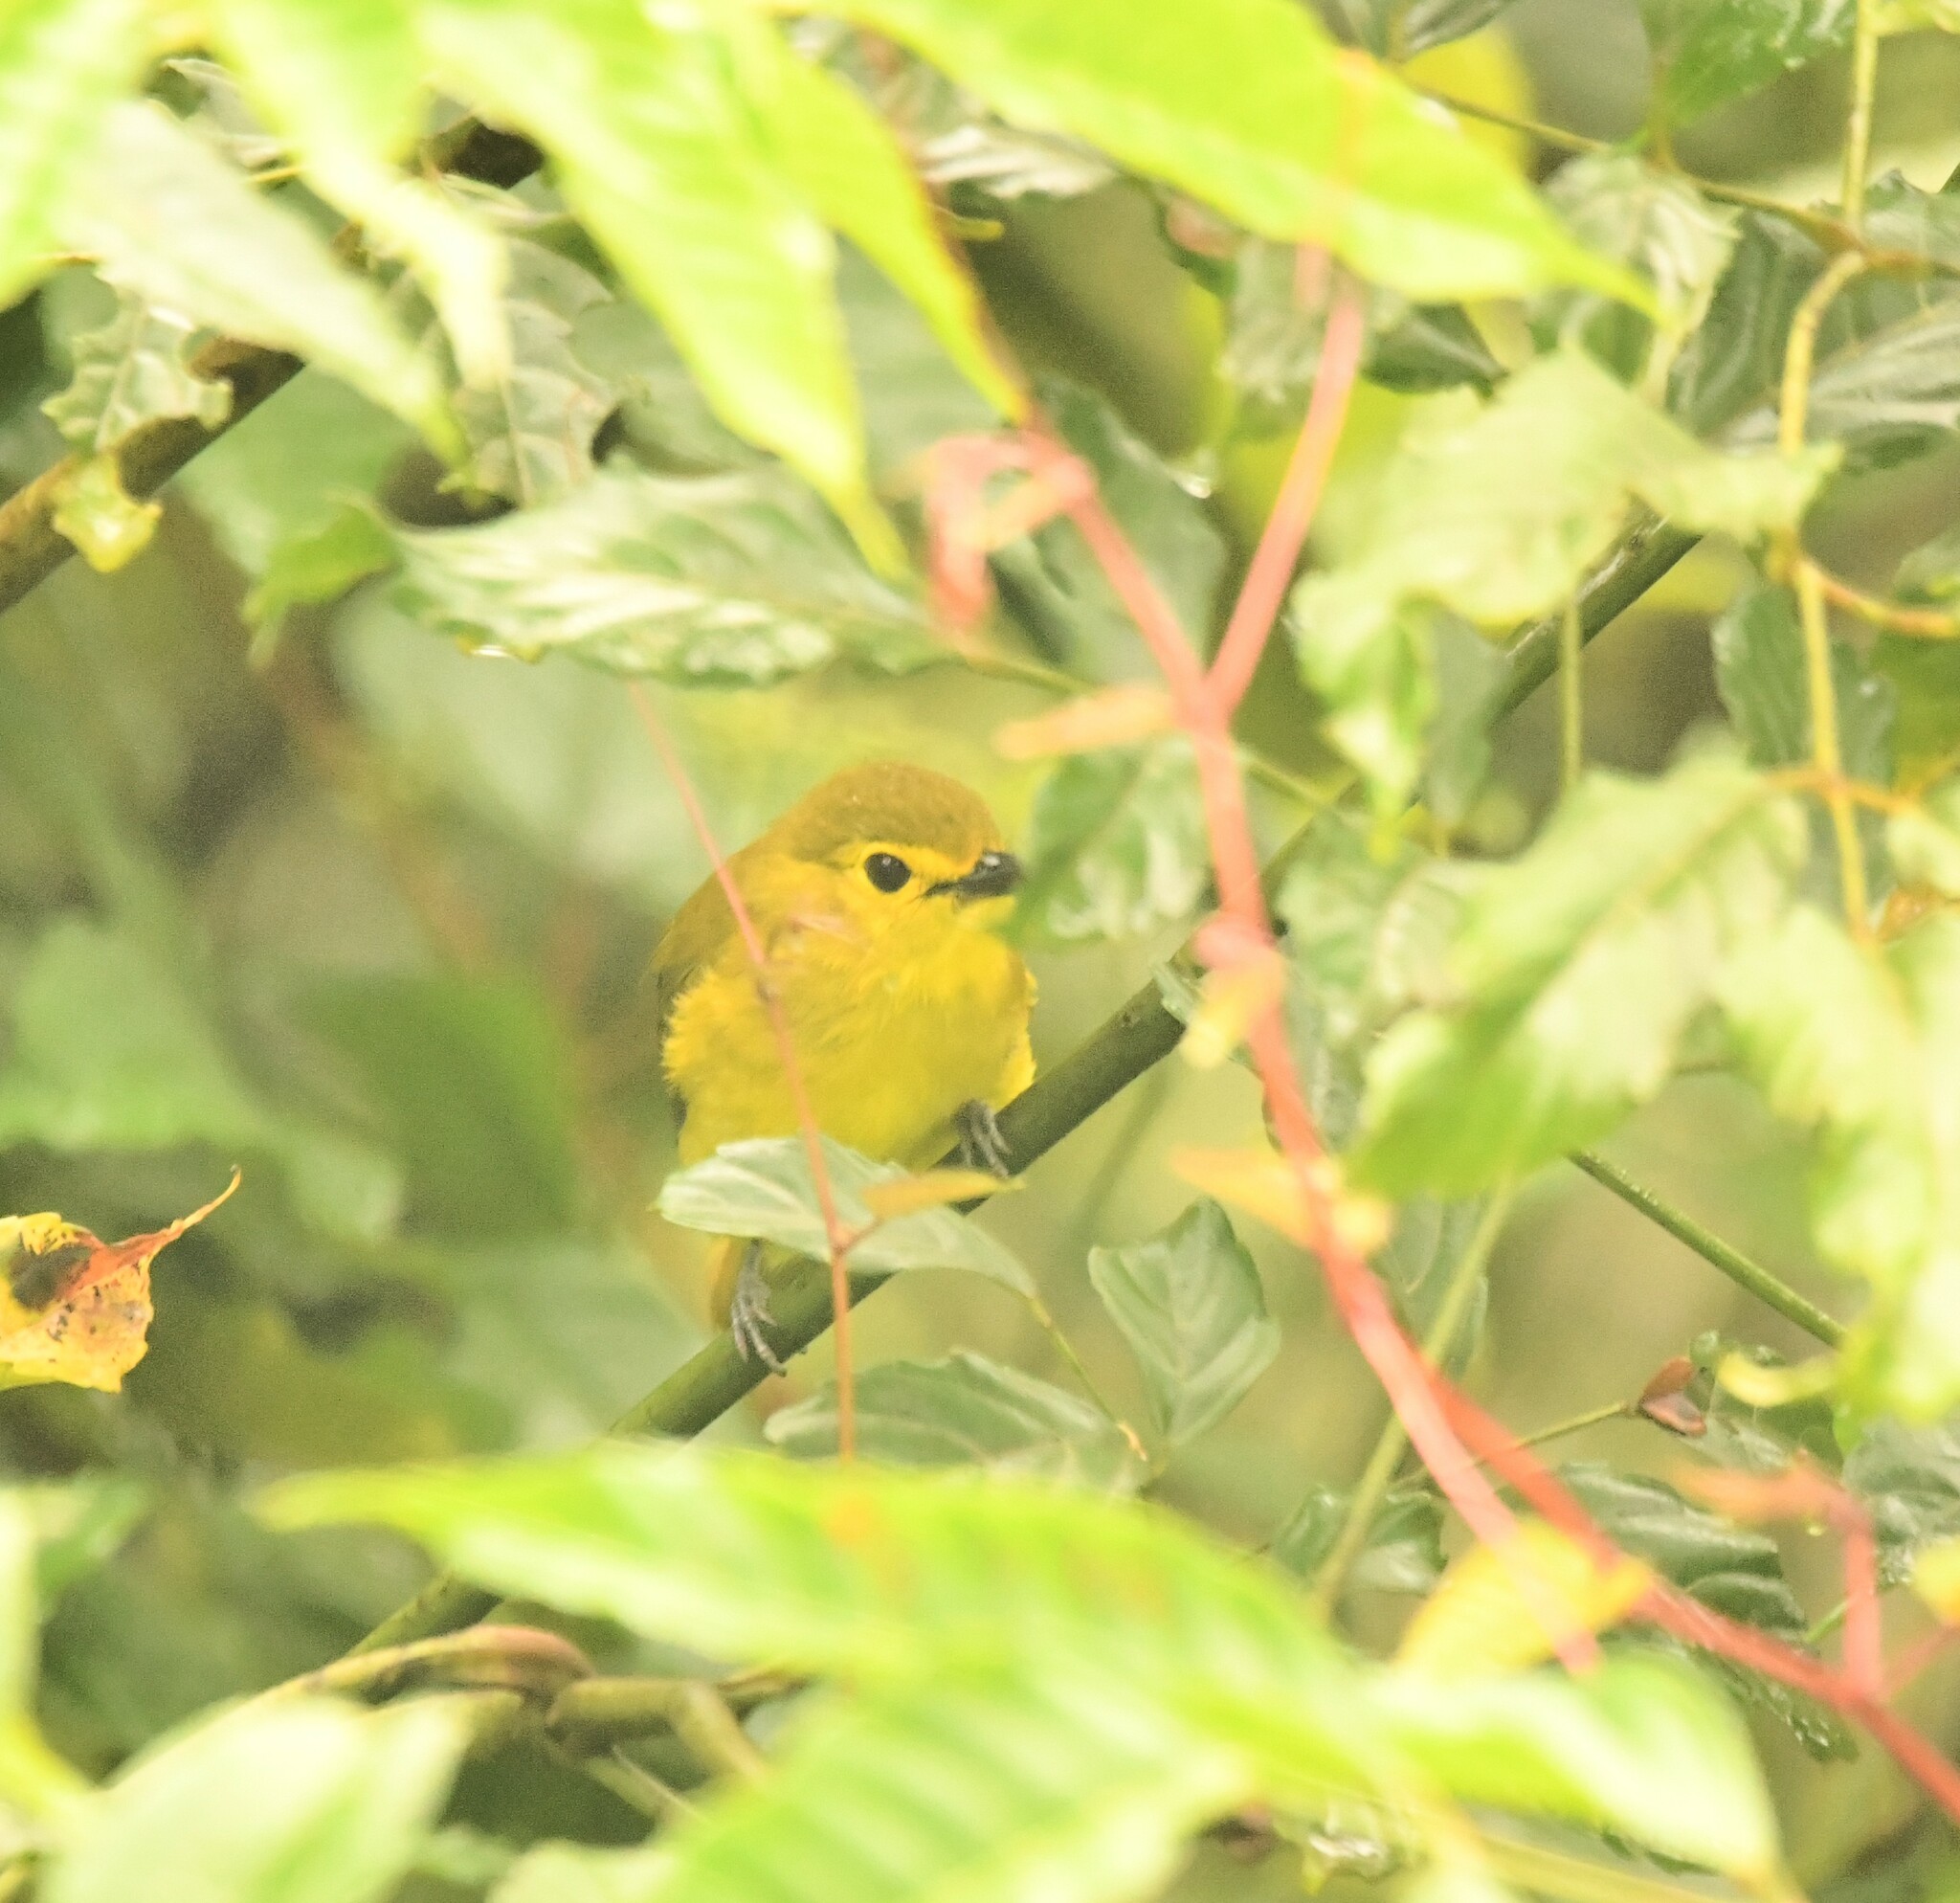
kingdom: Animalia
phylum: Chordata
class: Aves
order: Passeriformes
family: Pycnonotidae
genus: Acritillas
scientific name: Acritillas indica
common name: Yellow-browed bulbul
